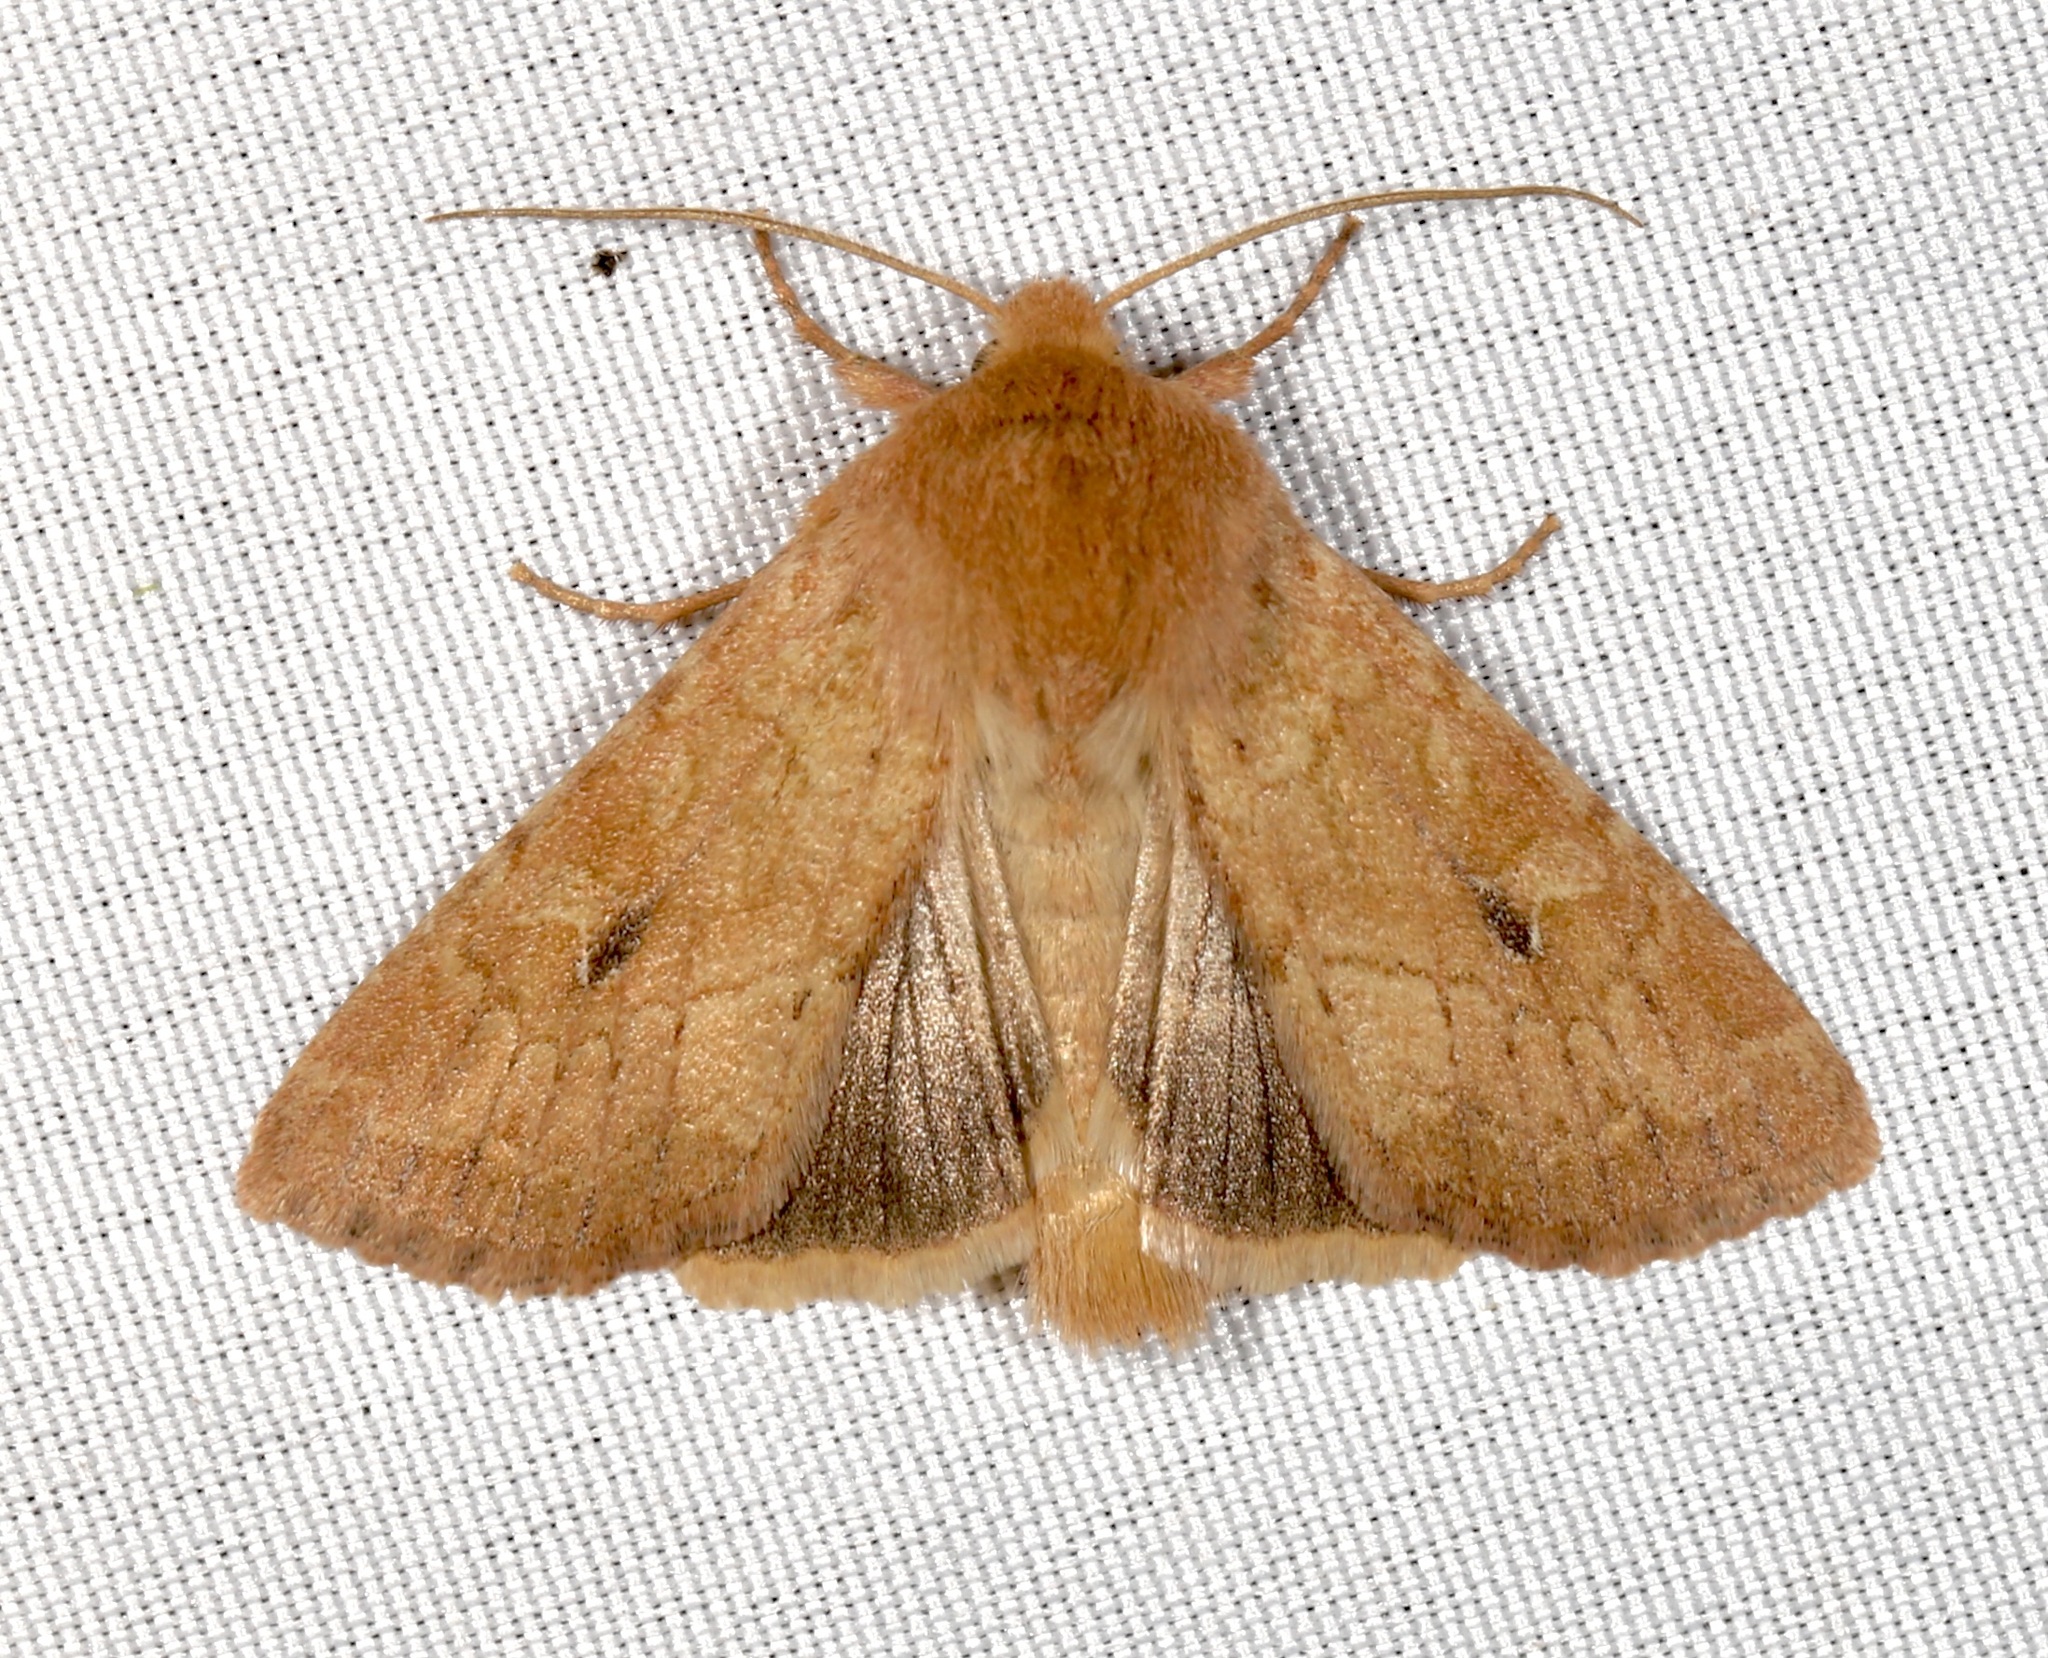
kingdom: Animalia
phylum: Arthropoda
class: Insecta
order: Lepidoptera
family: Noctuidae
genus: Apamea
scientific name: Apamea inficita
